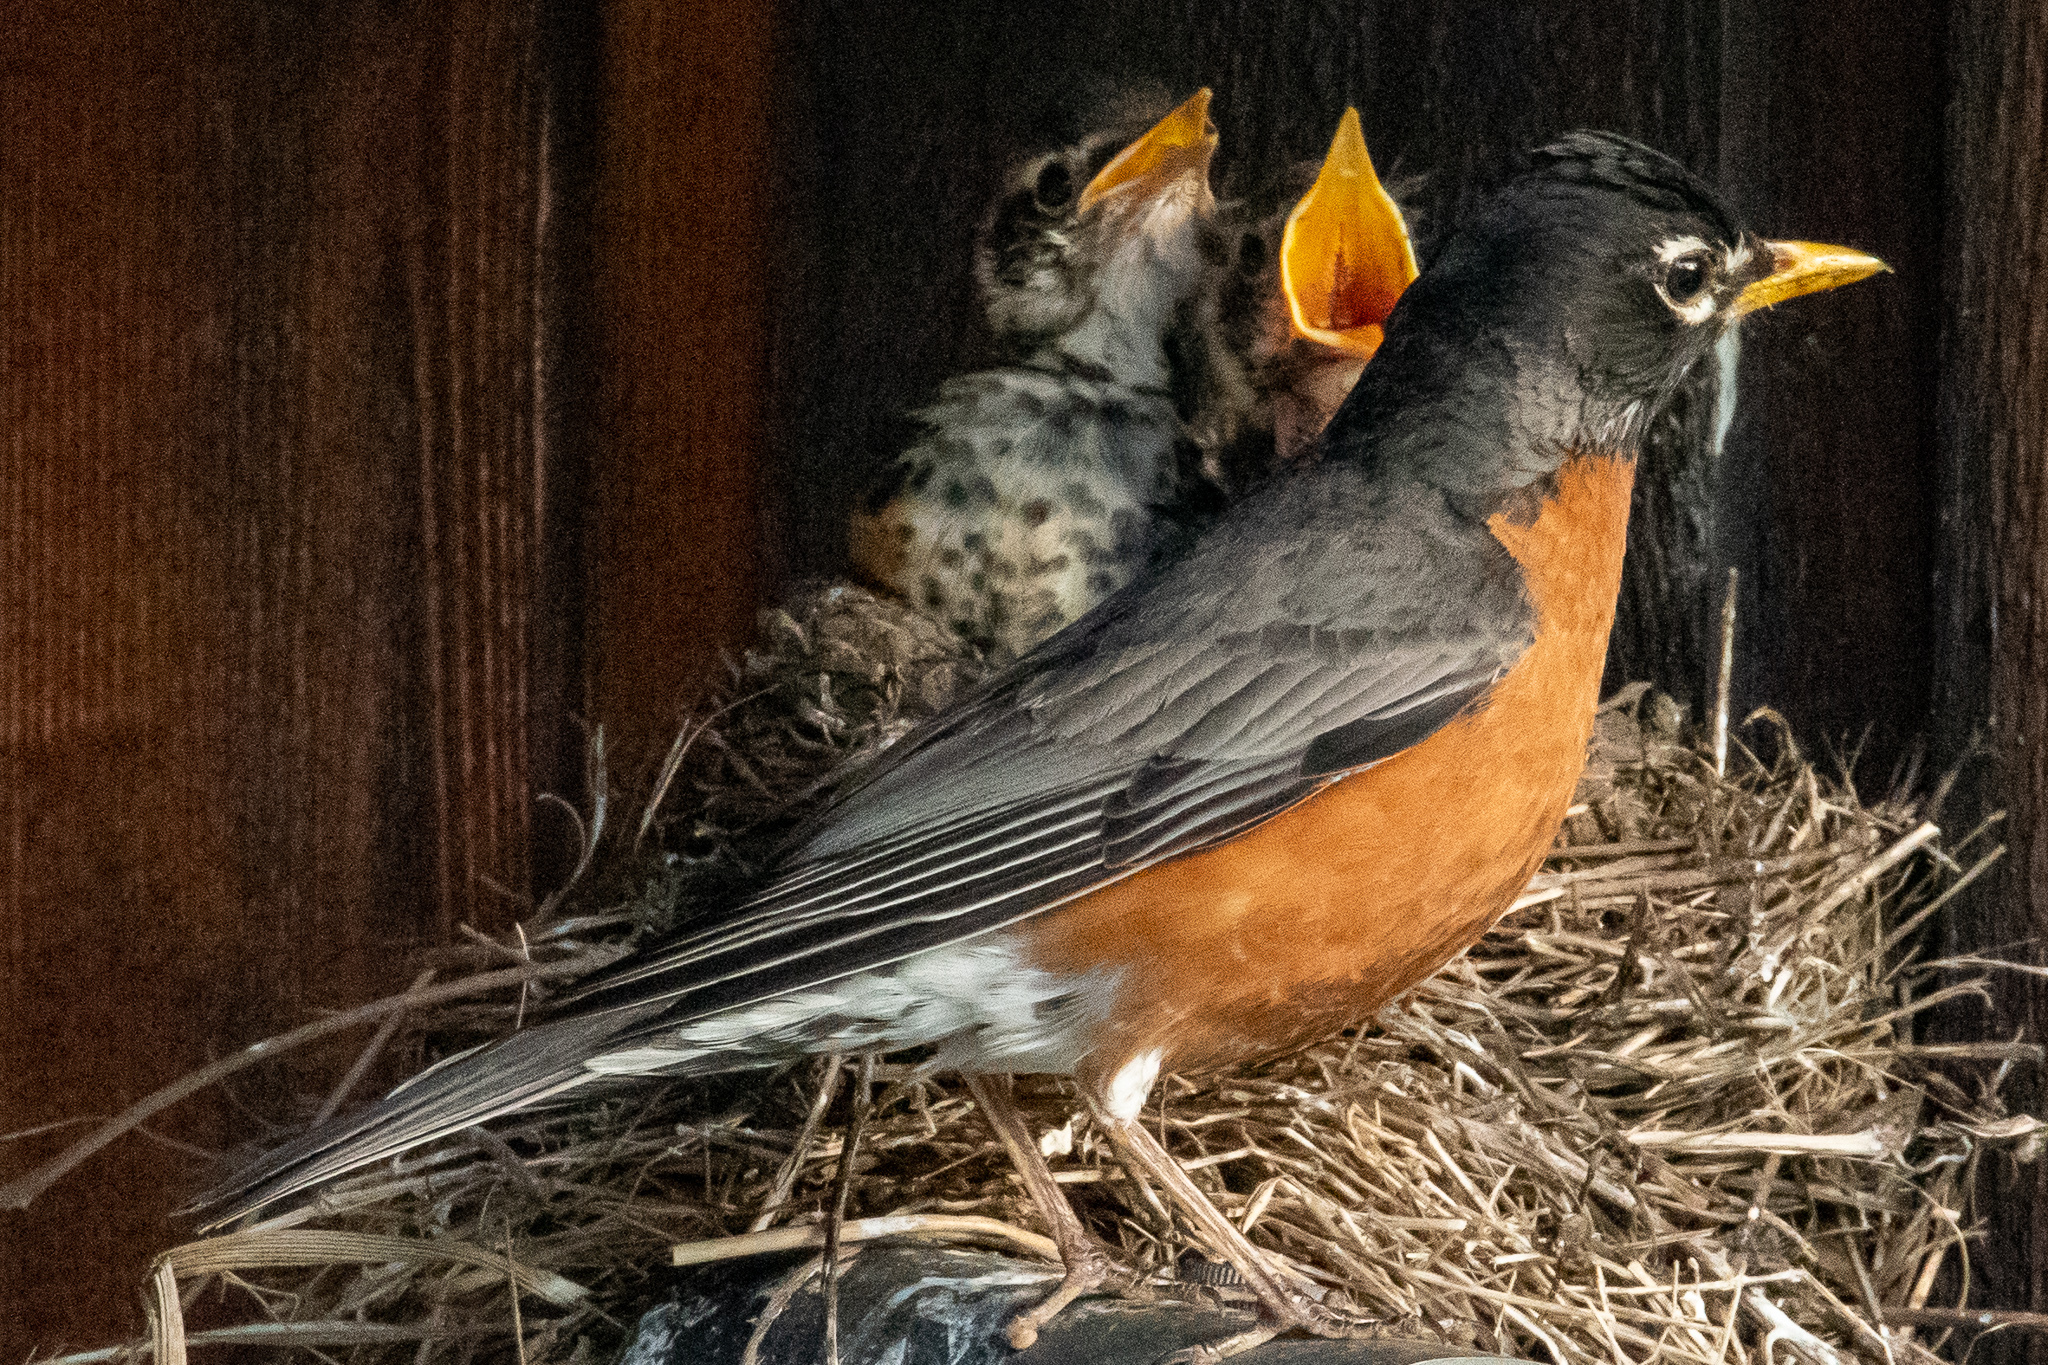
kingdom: Animalia
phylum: Chordata
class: Aves
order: Passeriformes
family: Turdidae
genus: Turdus
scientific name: Turdus migratorius
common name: American robin
